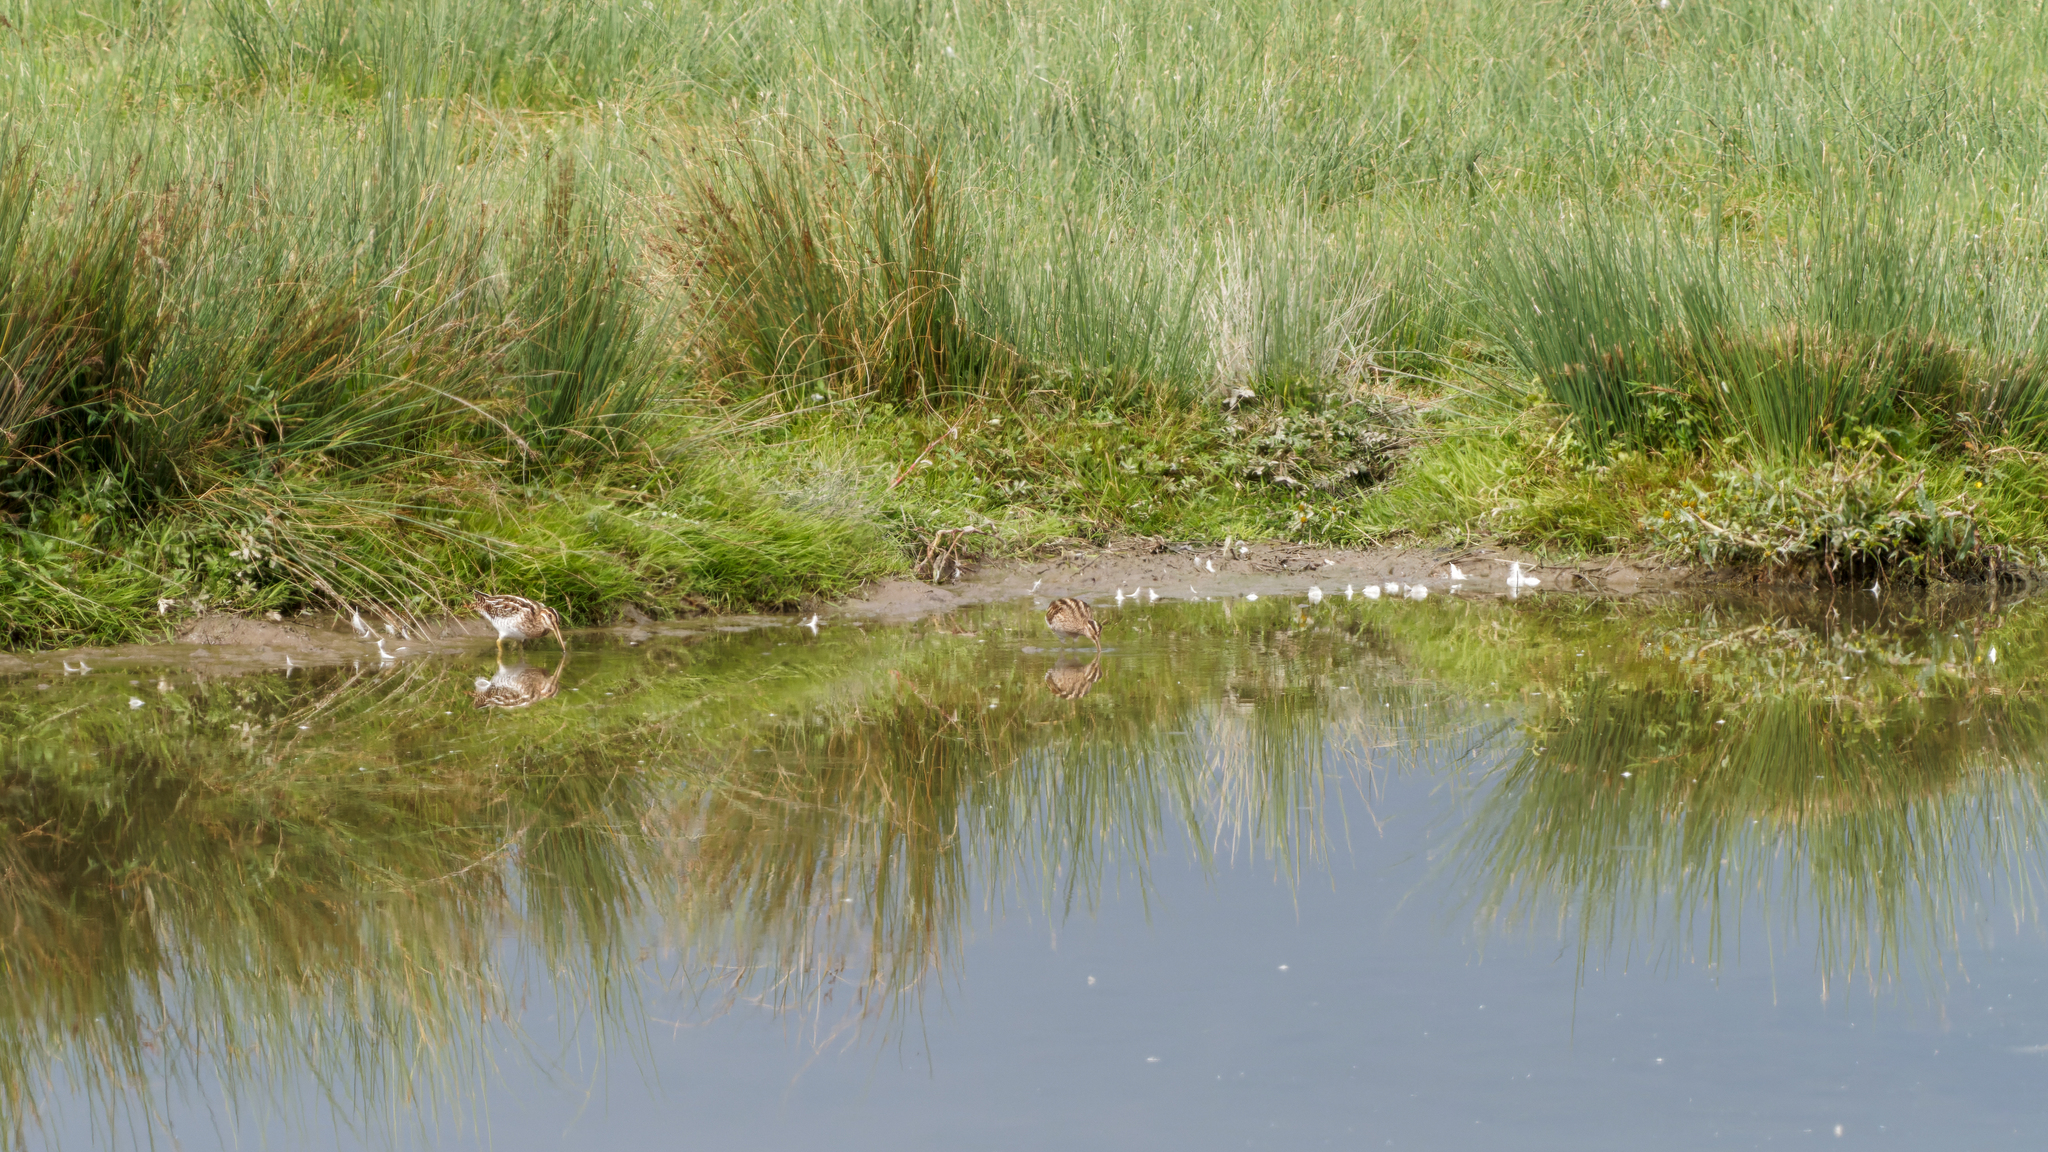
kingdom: Animalia
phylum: Chordata
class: Aves
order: Charadriiformes
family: Scolopacidae
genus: Gallinago
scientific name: Gallinago gallinago
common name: Common snipe
